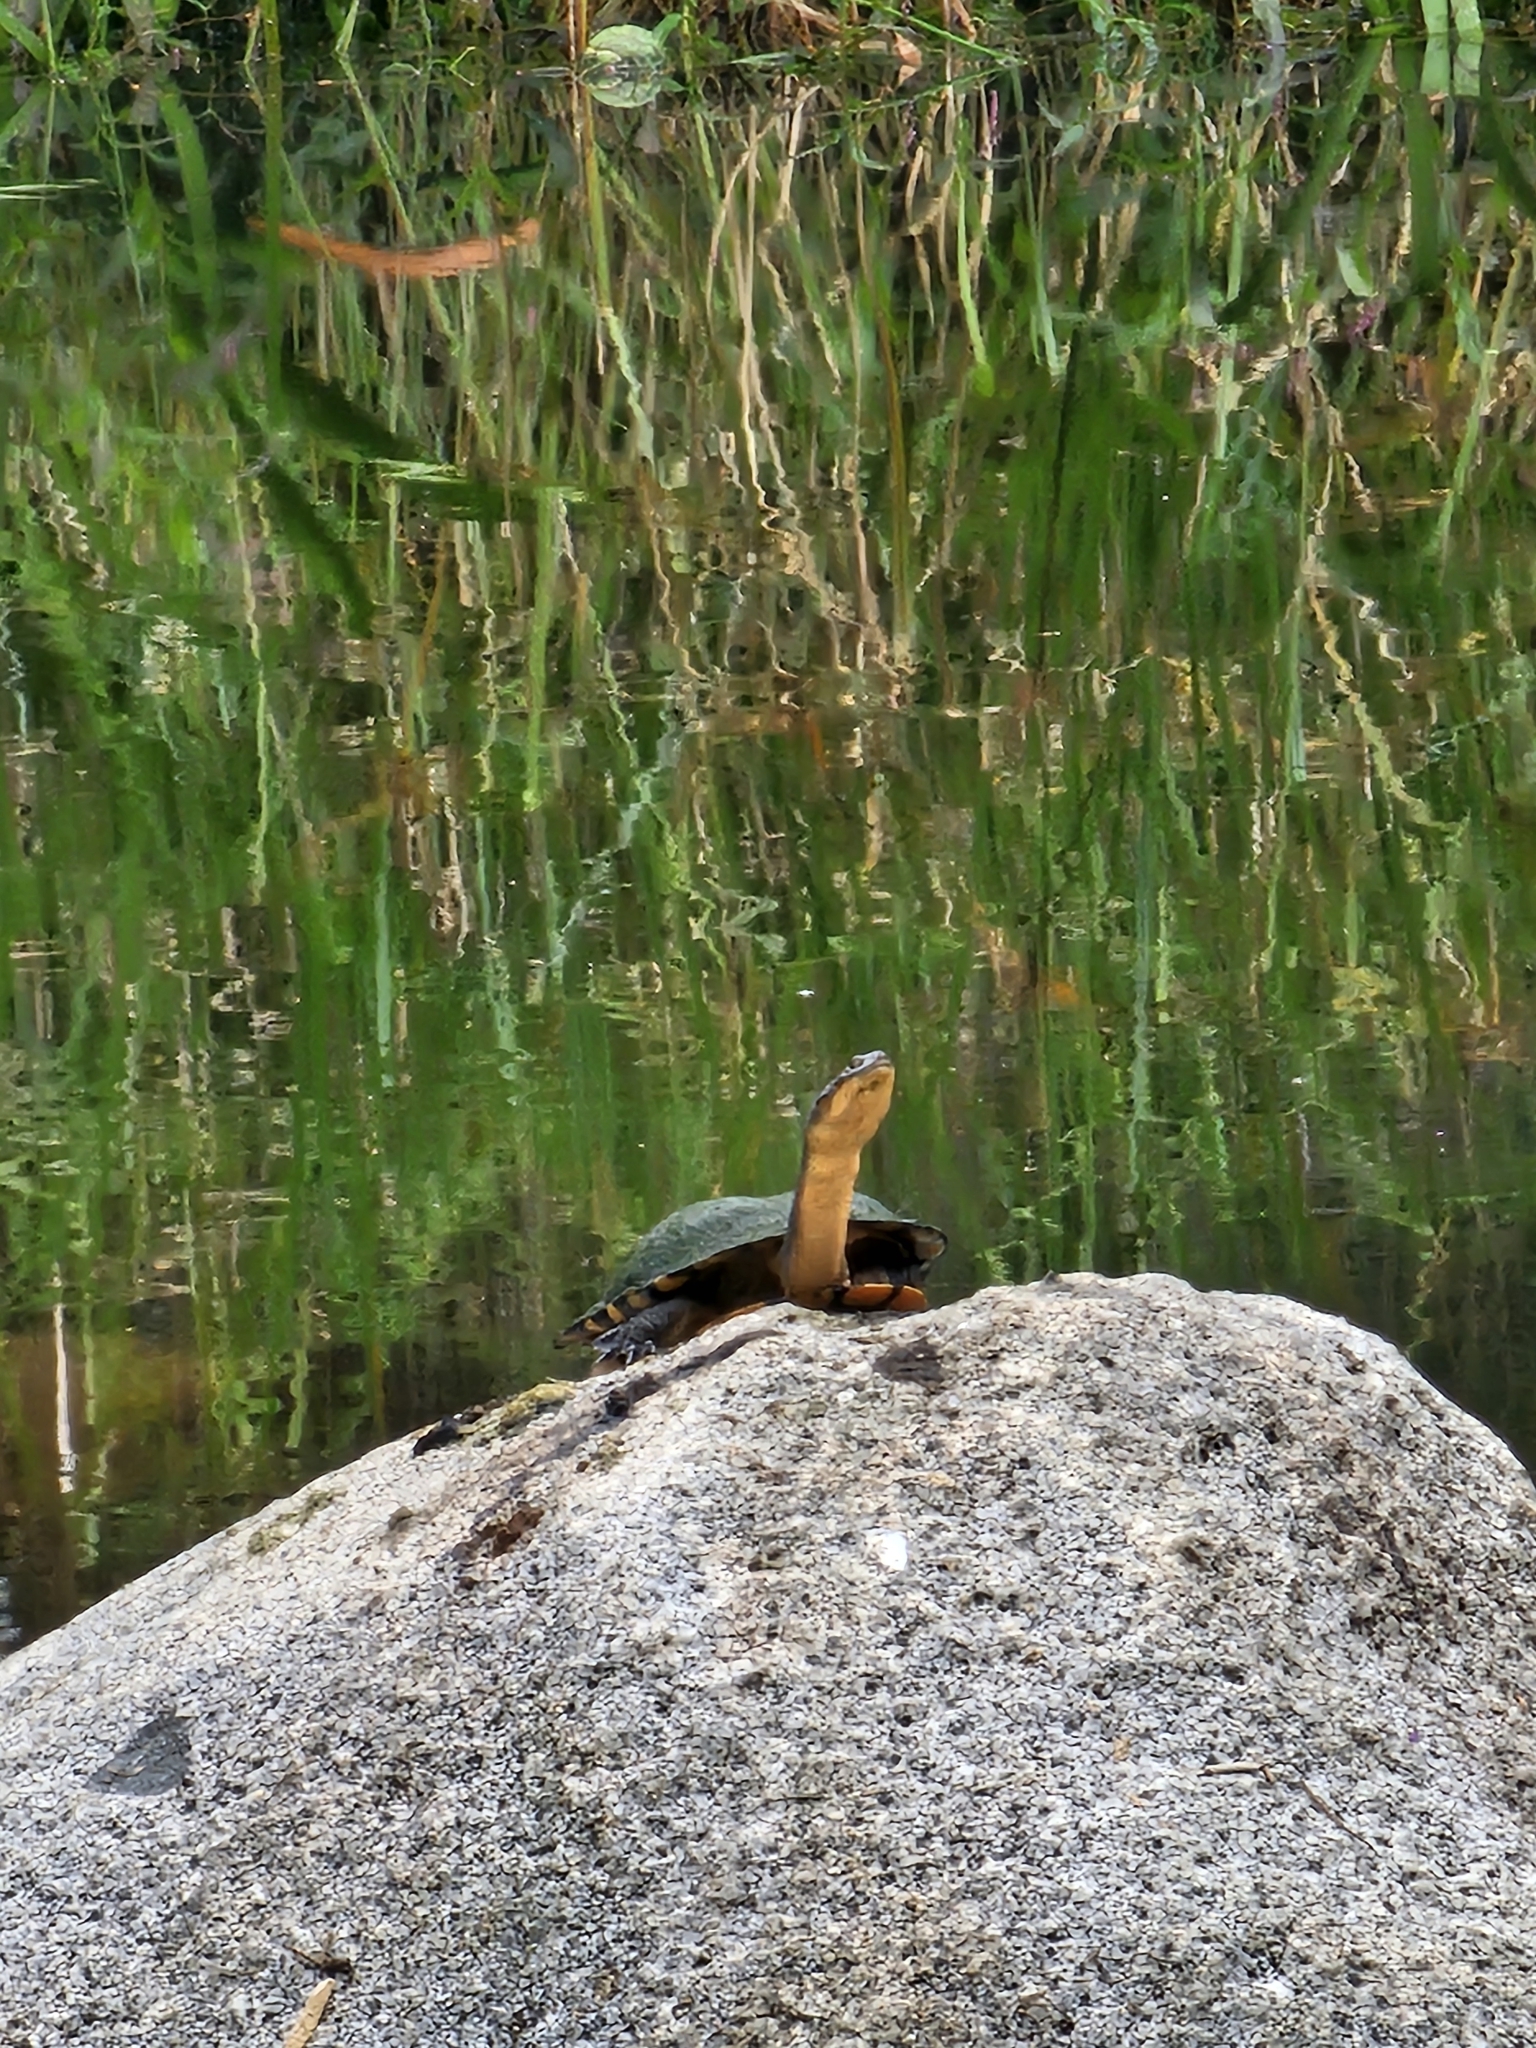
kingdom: Animalia
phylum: Chordata
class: Testudines
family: Chelidae
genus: Chelodina
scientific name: Chelodina longicollis
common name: Eastern snake-necked turtle
